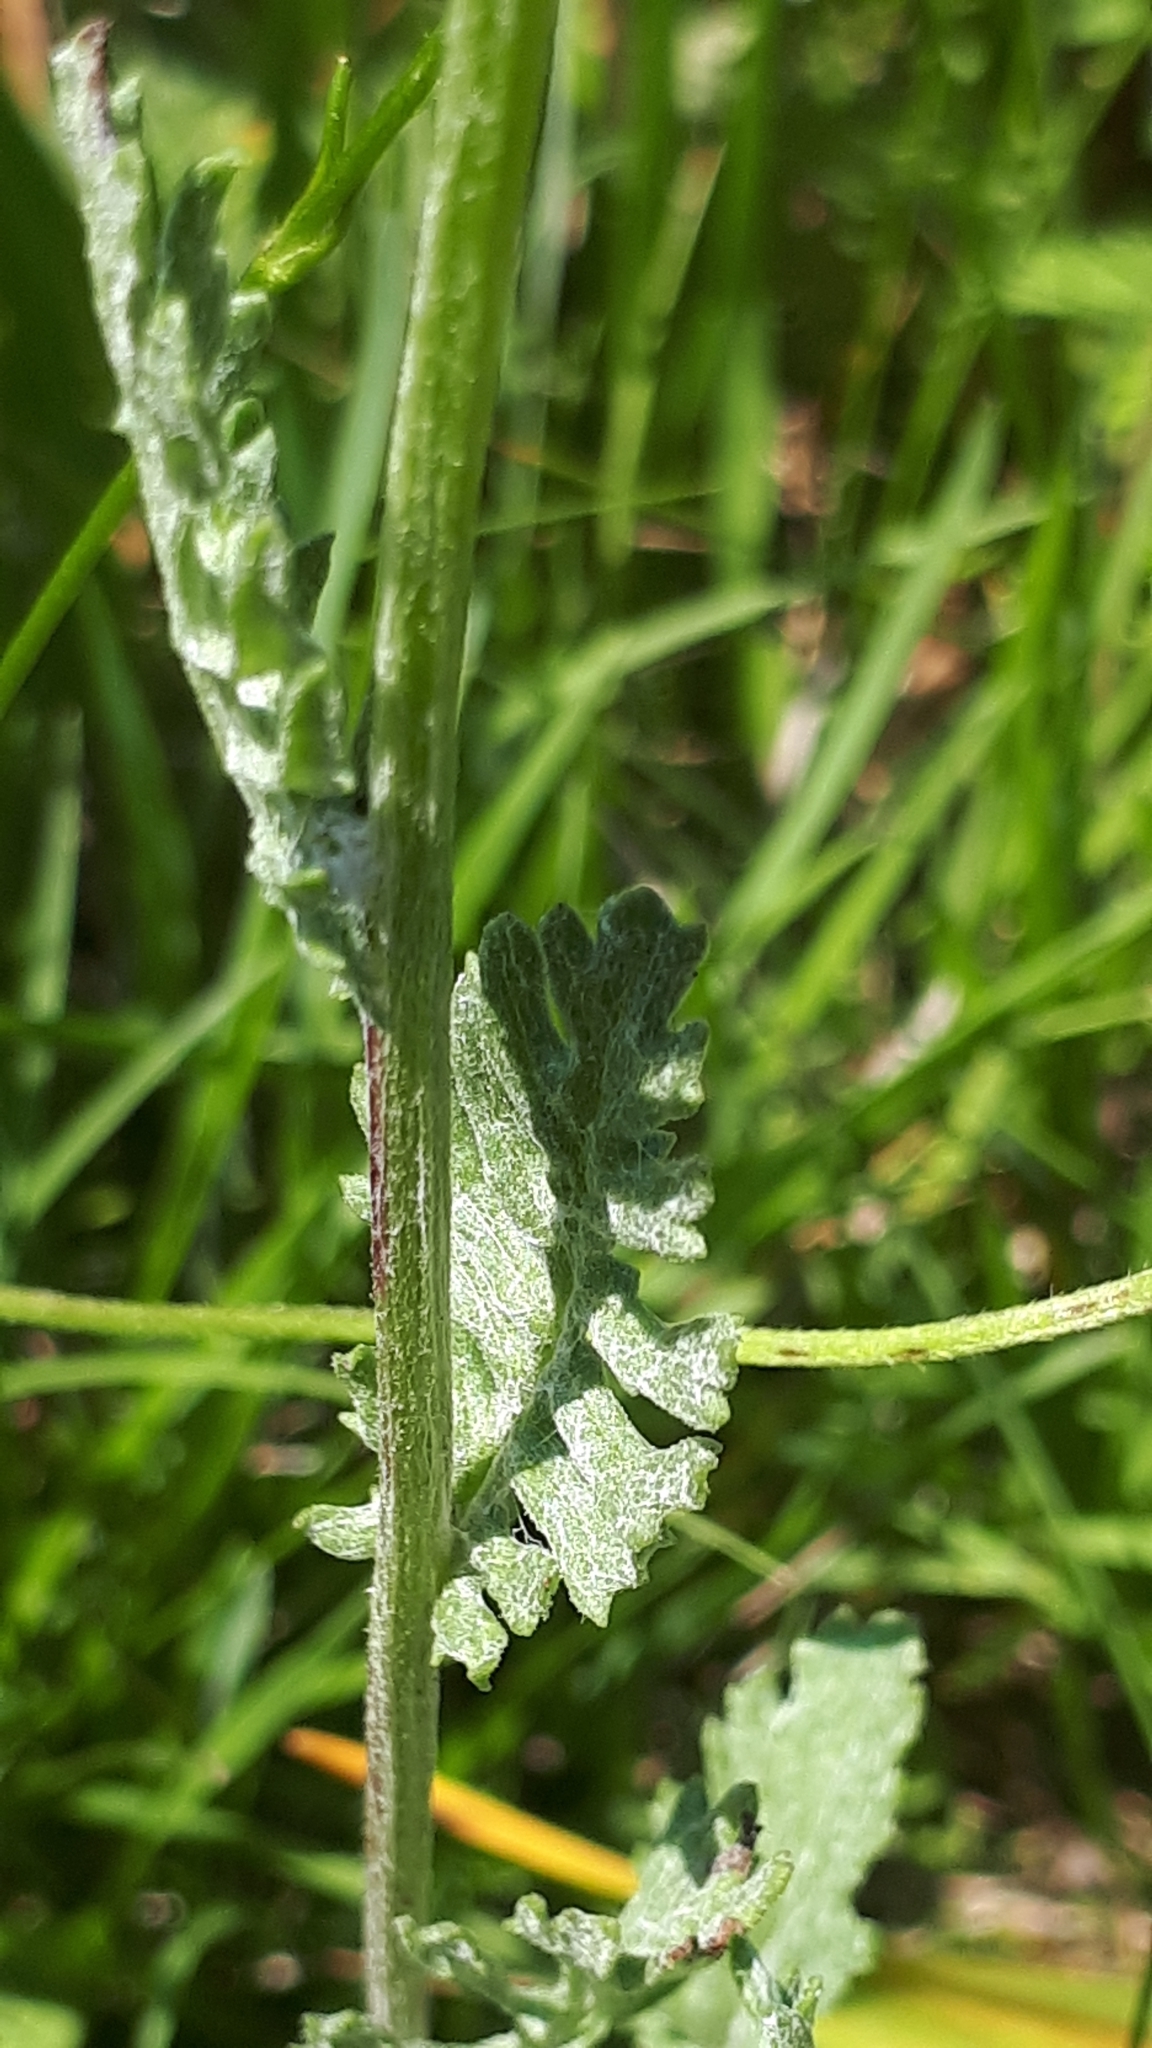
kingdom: Plantae
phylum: Tracheophyta
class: Magnoliopsida
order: Asterales
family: Asteraceae
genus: Jacobaea
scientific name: Jacobaea vulgaris
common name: Stinking willie
